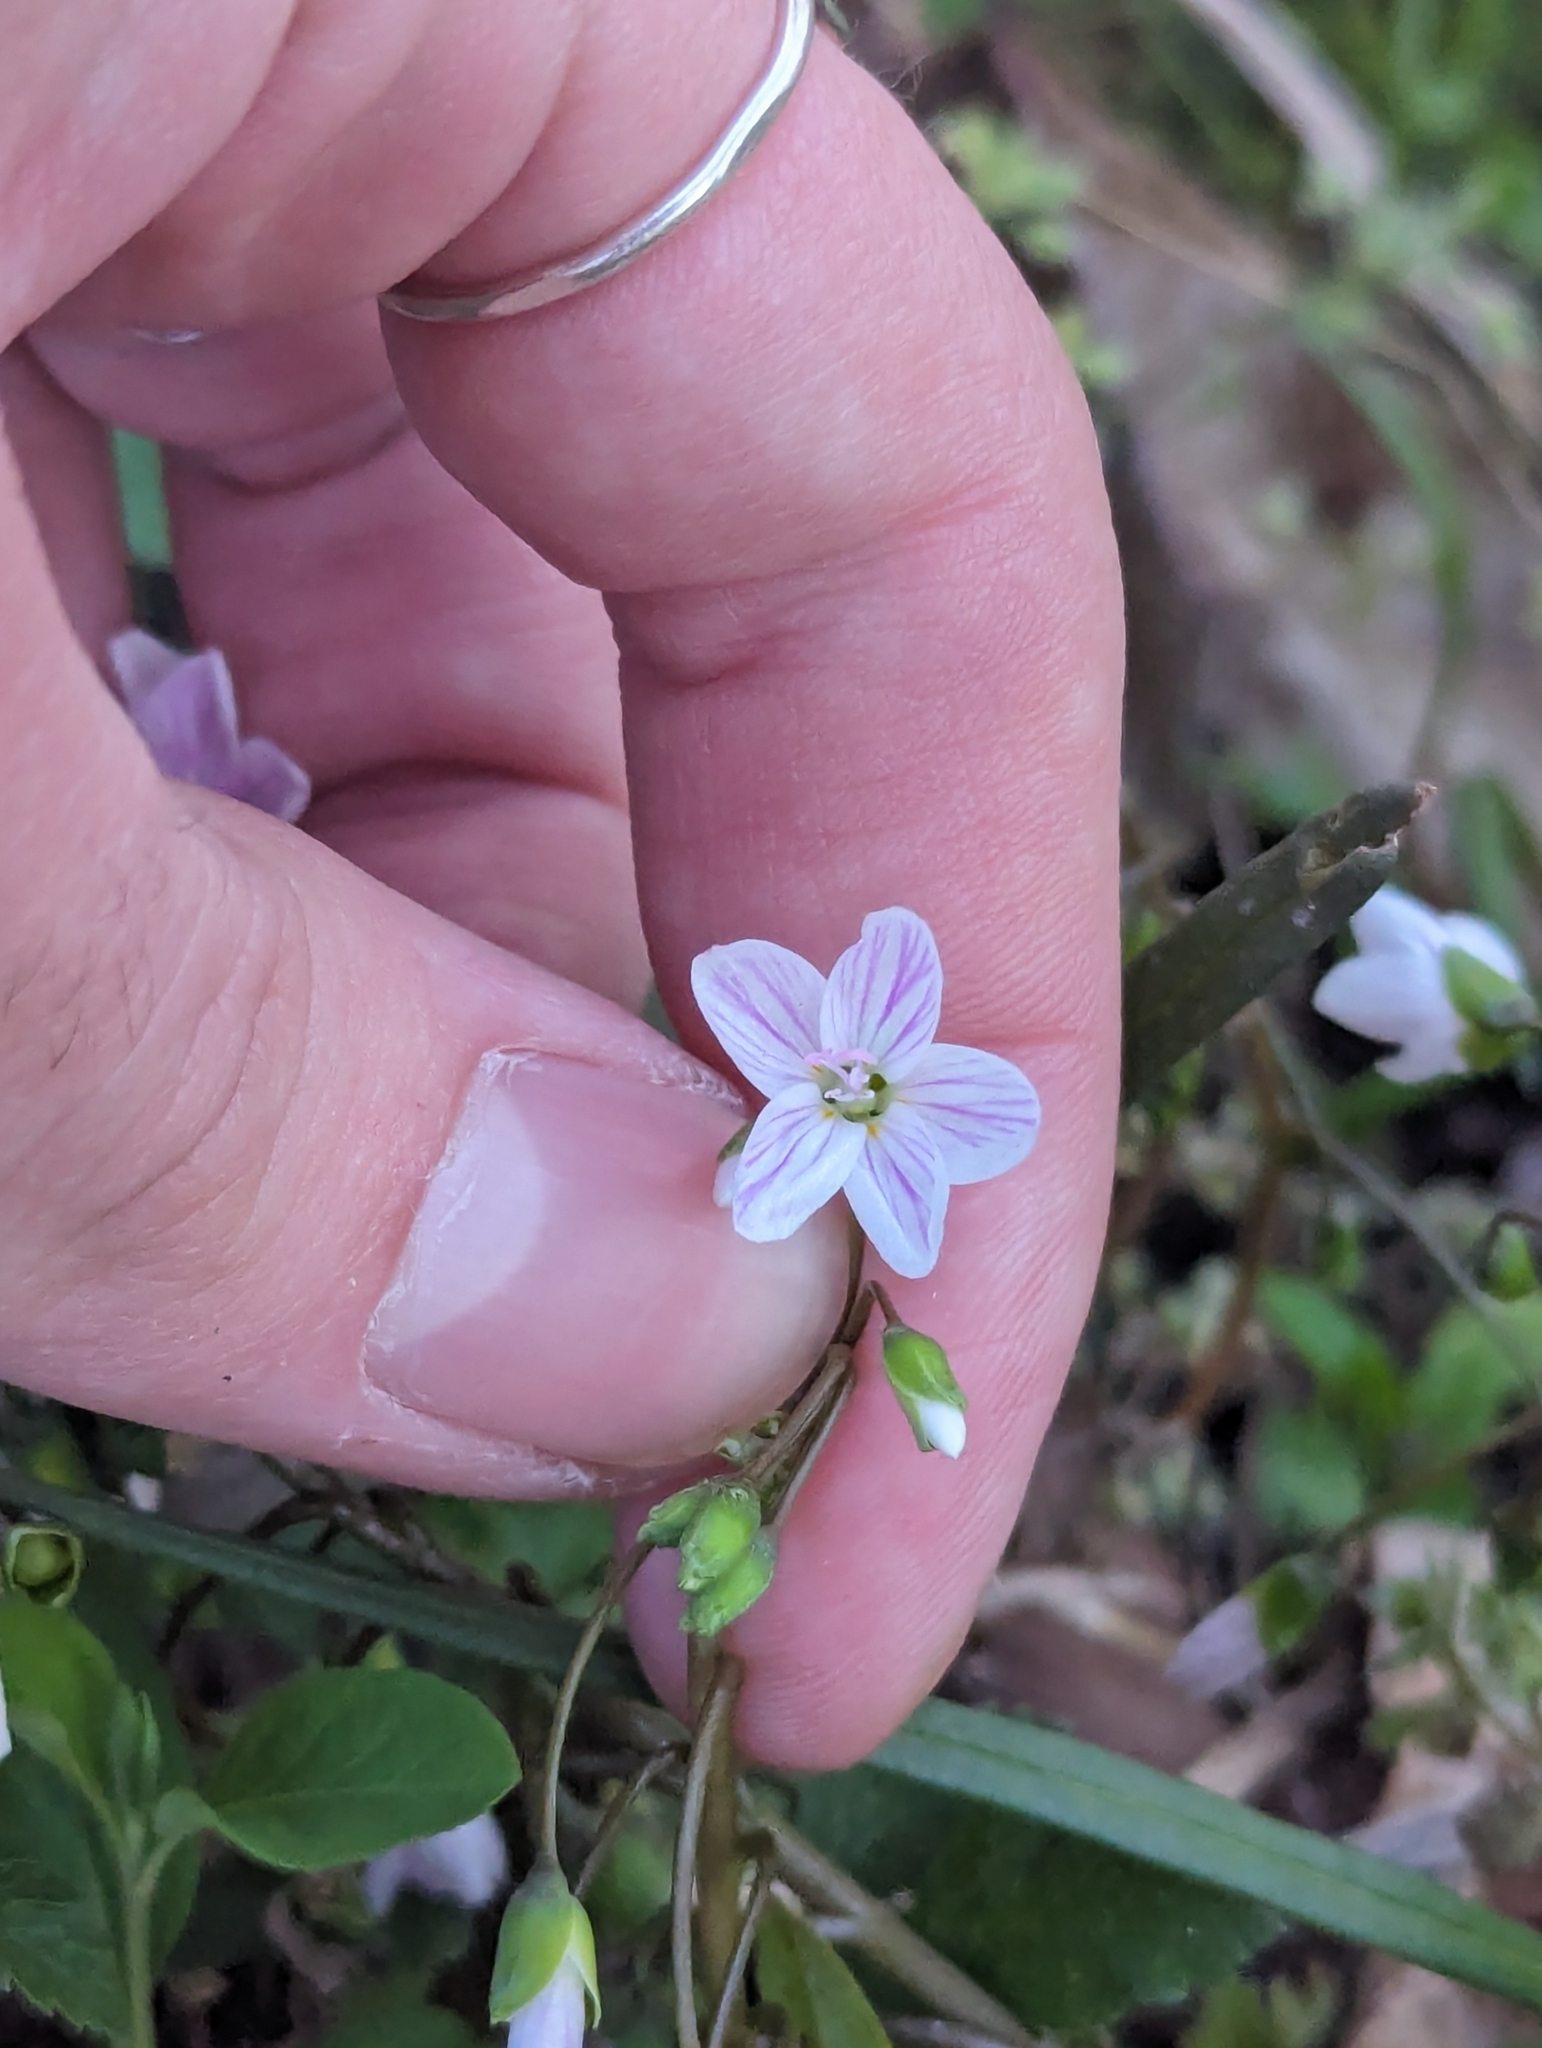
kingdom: Plantae
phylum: Tracheophyta
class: Magnoliopsida
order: Caryophyllales
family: Montiaceae
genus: Claytonia
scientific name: Claytonia virginica
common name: Virginia springbeauty
